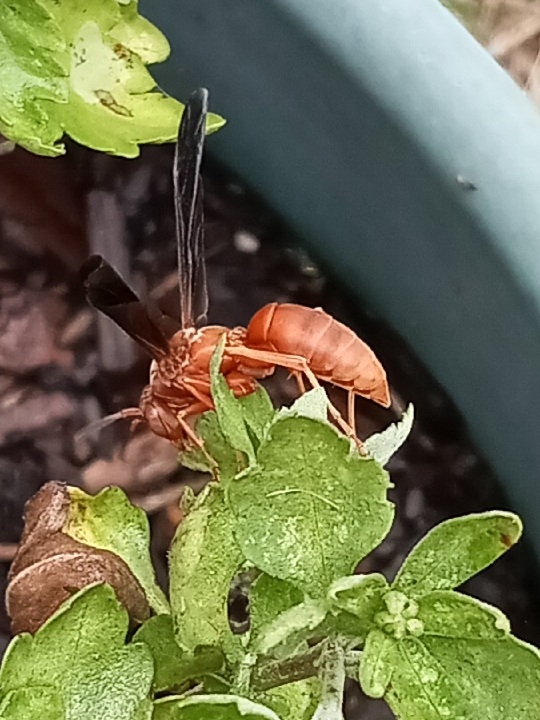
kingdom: Animalia
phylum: Arthropoda
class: Insecta
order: Hymenoptera
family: Eumenidae
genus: Polistes
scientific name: Polistes carolina
